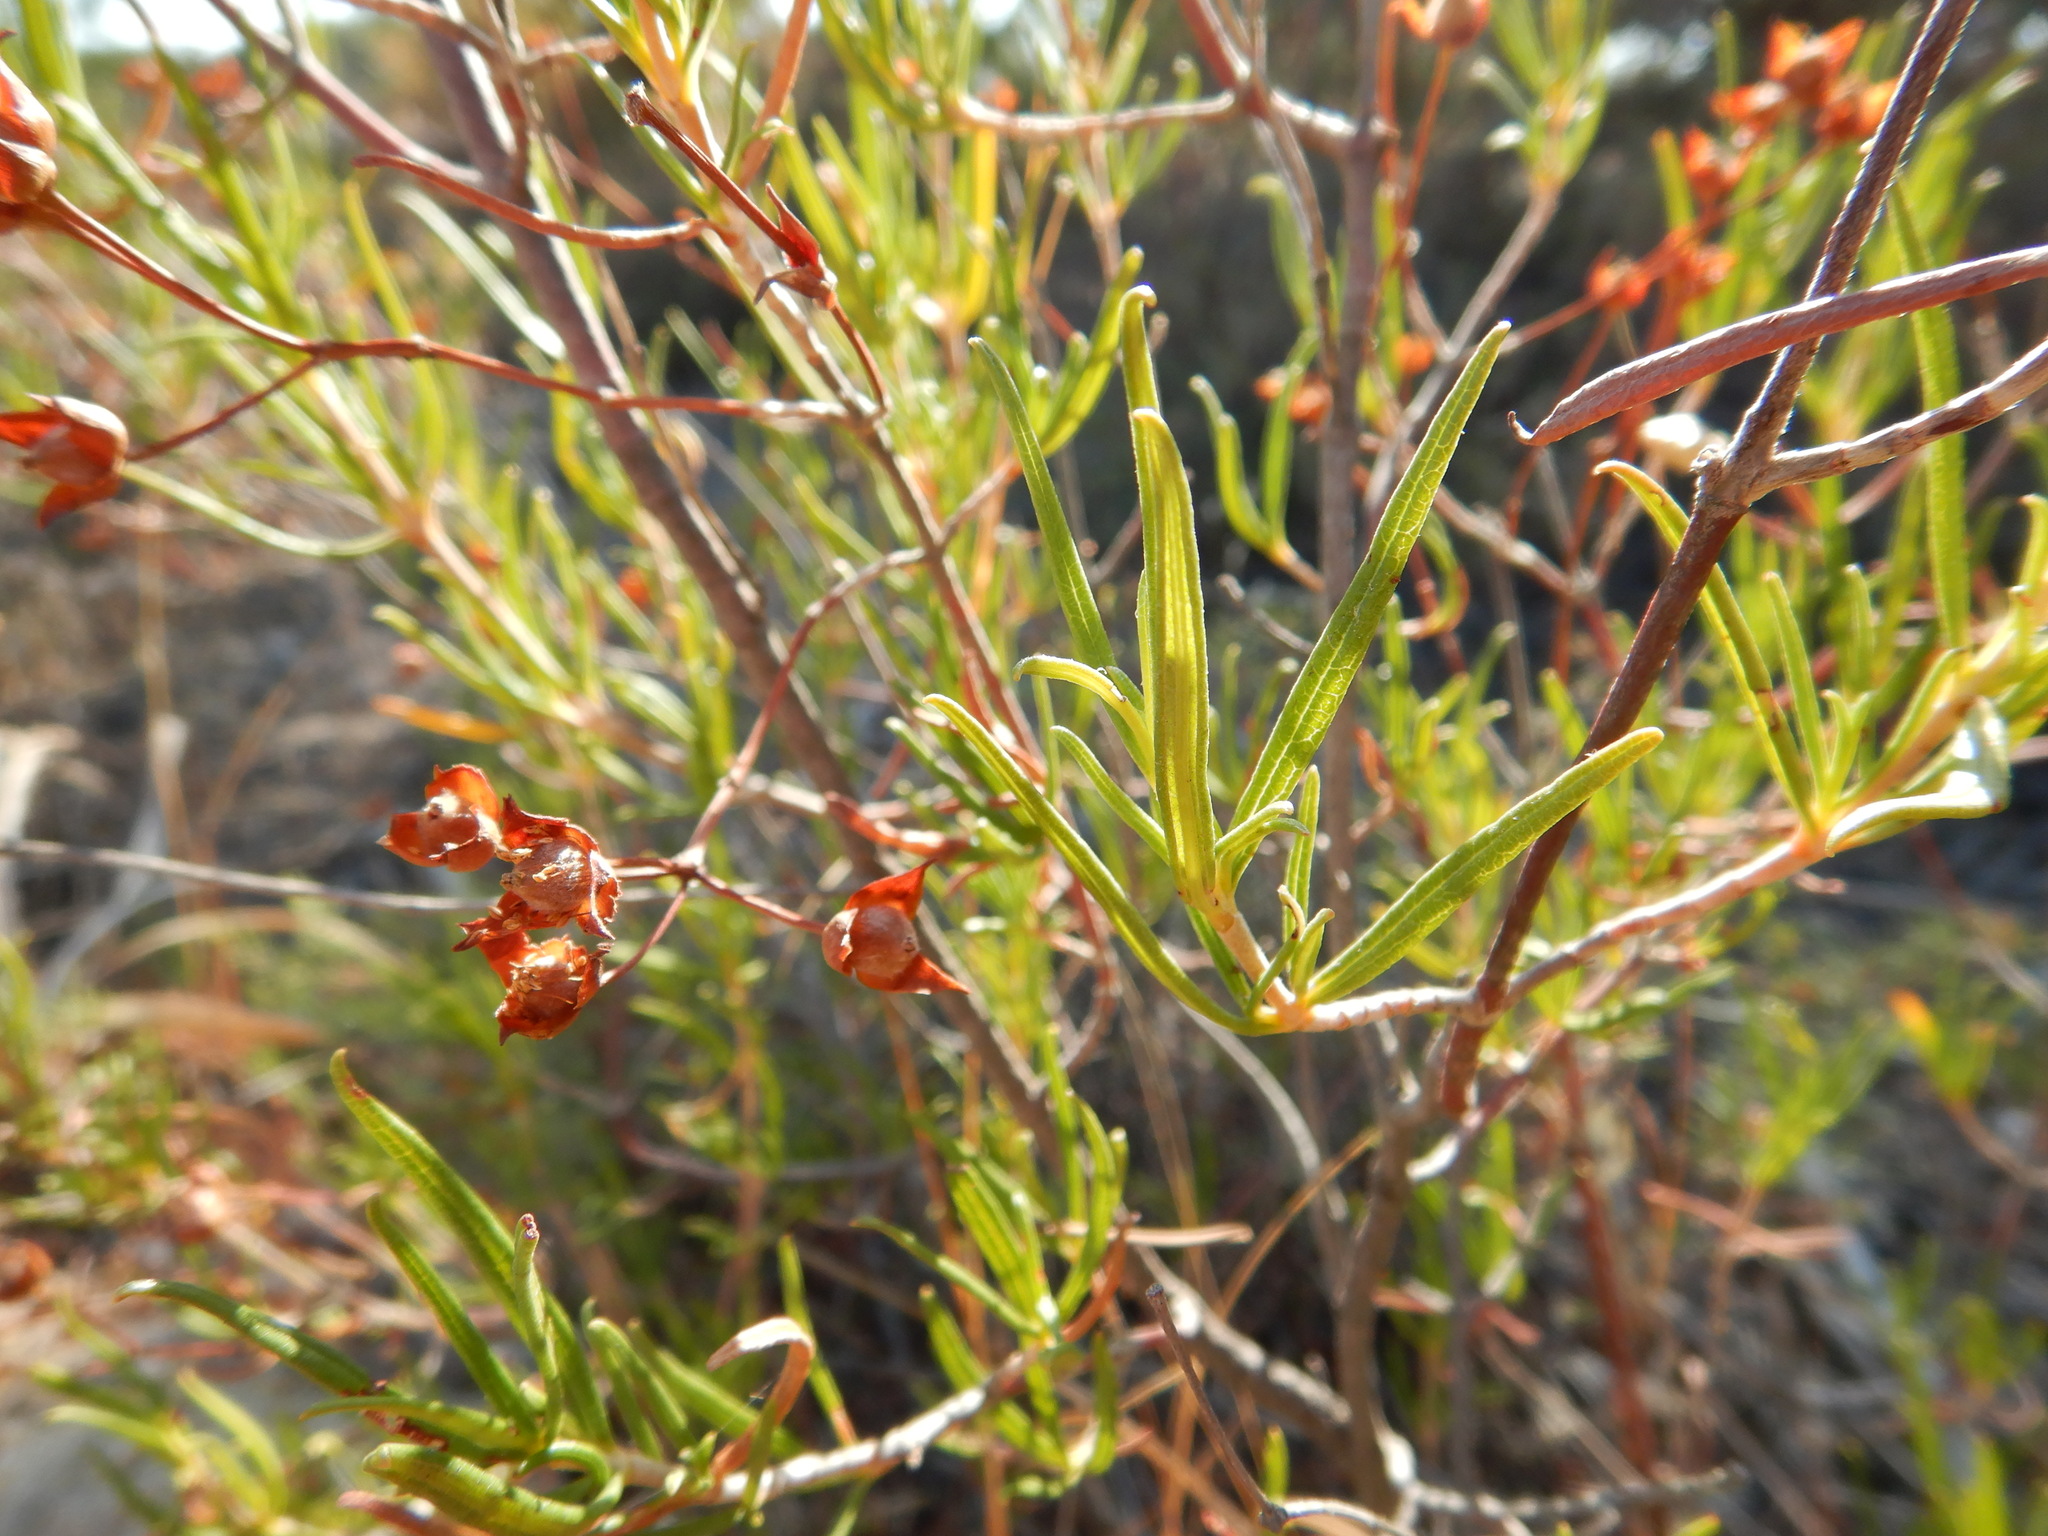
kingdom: Plantae
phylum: Tracheophyta
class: Magnoliopsida
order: Malvales
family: Cistaceae
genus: Cistus
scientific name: Cistus libanotis
